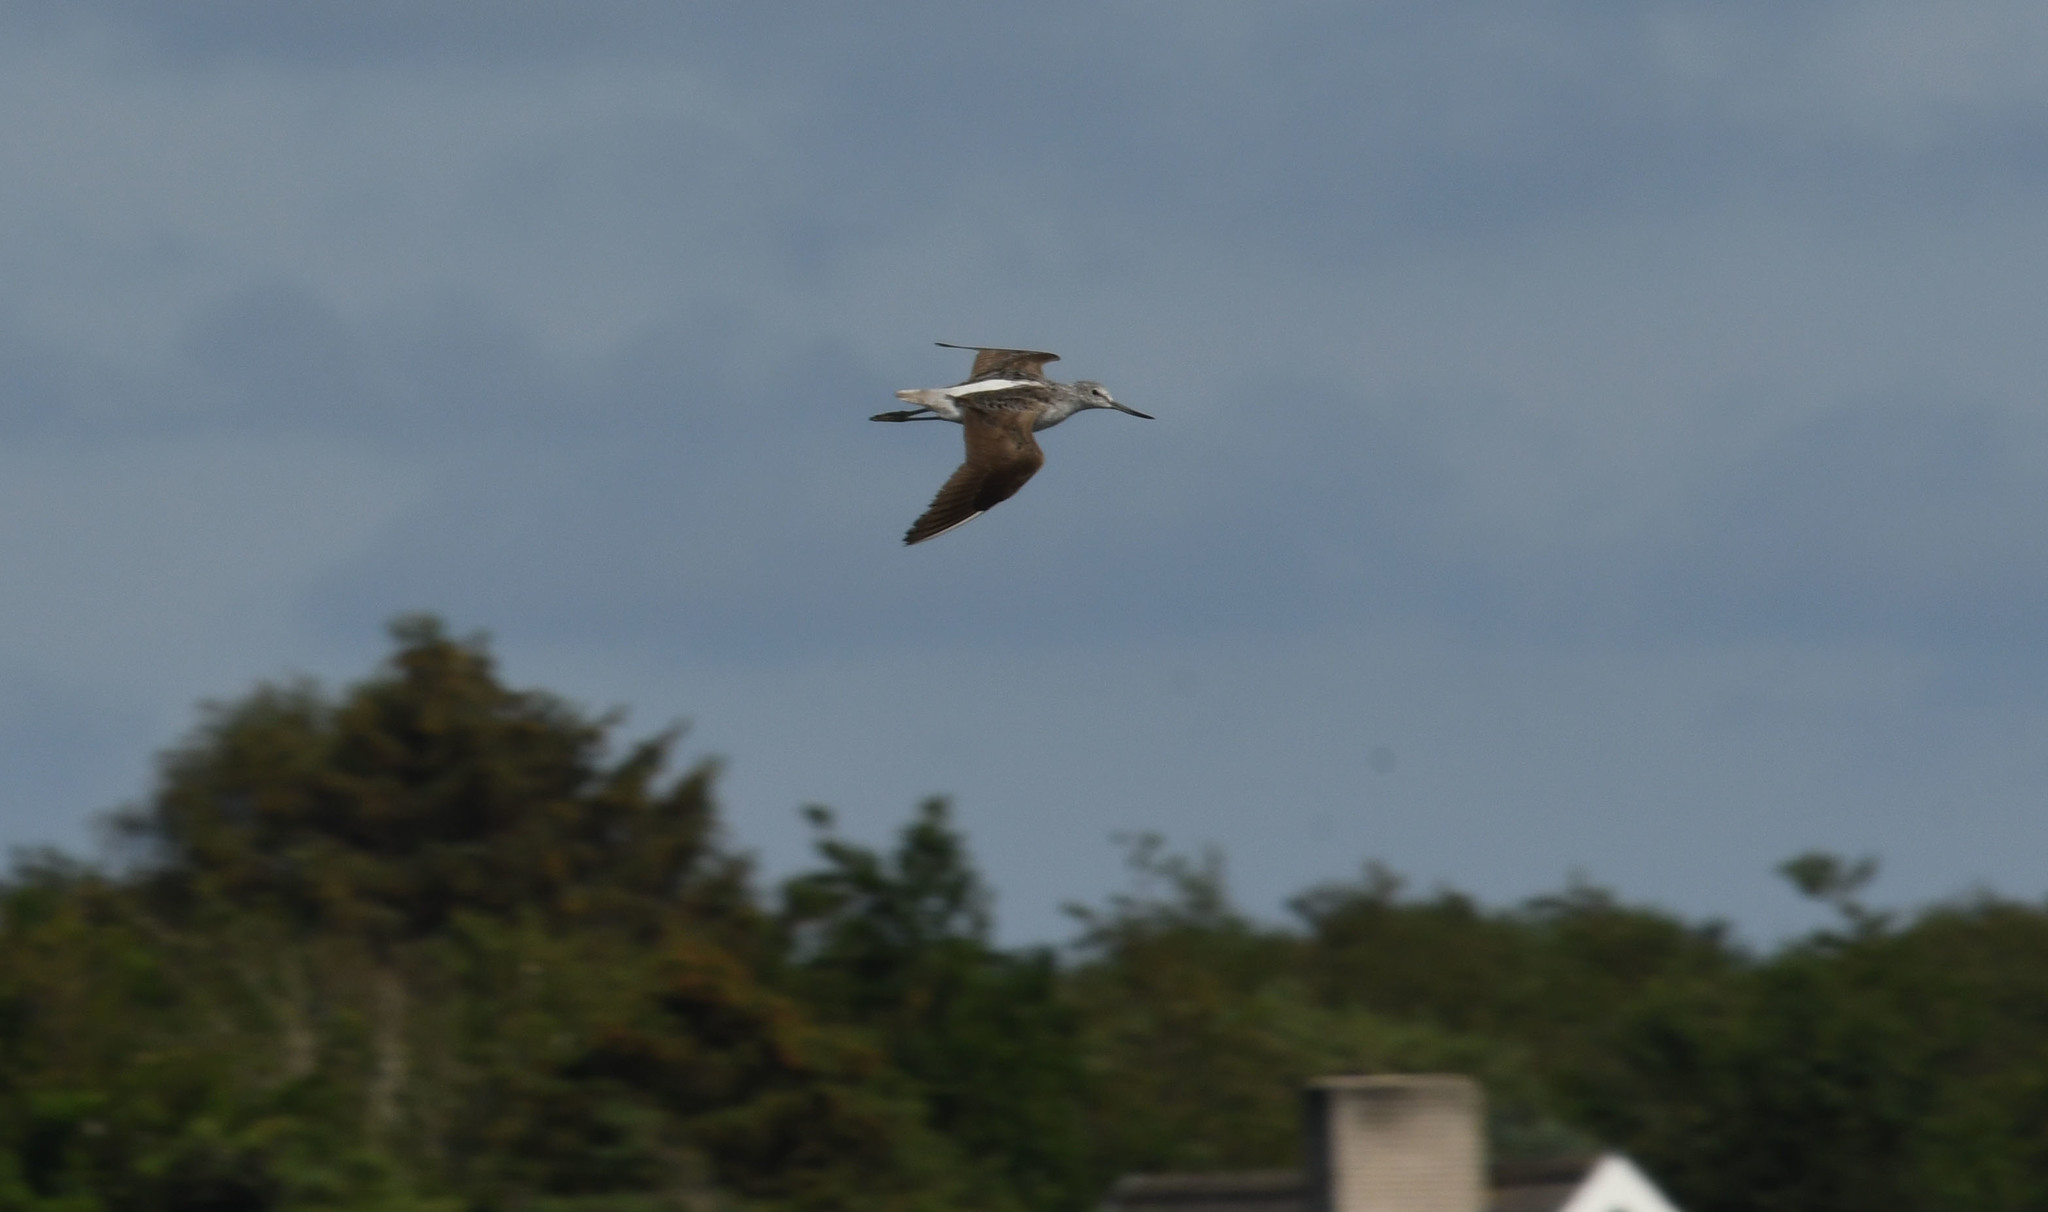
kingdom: Animalia
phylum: Chordata
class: Aves
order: Charadriiformes
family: Scolopacidae
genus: Tringa
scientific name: Tringa nebularia
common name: Common greenshank
